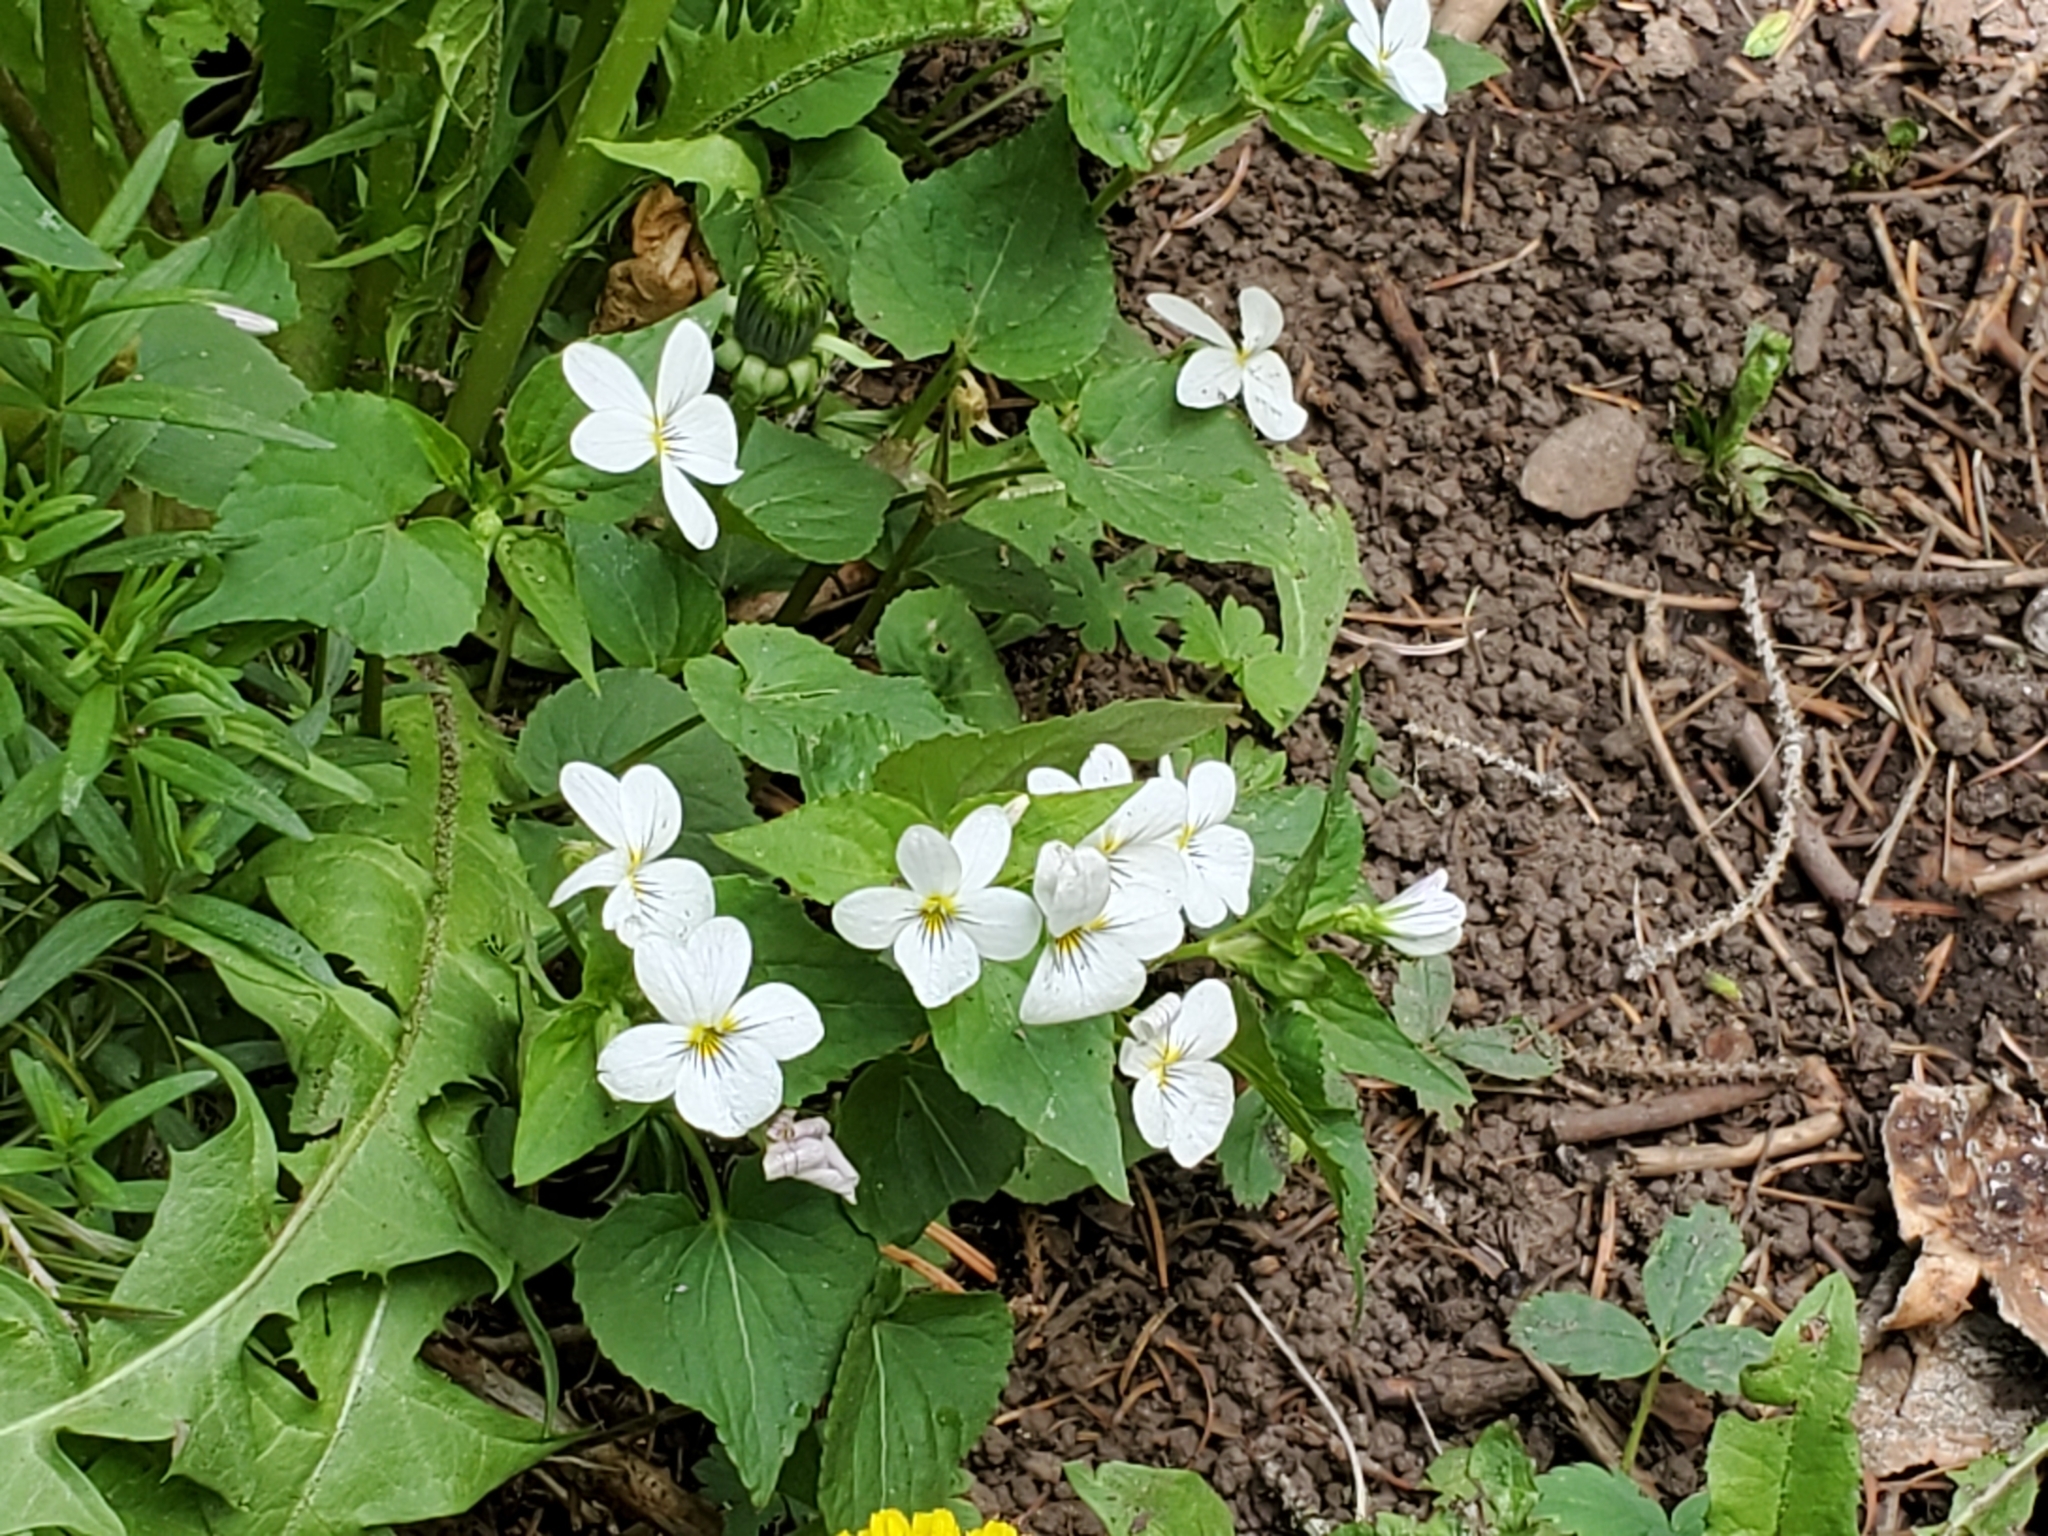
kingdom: Plantae
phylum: Tracheophyta
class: Magnoliopsida
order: Malpighiales
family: Violaceae
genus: Viola
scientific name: Viola canadensis
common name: Canada violet
